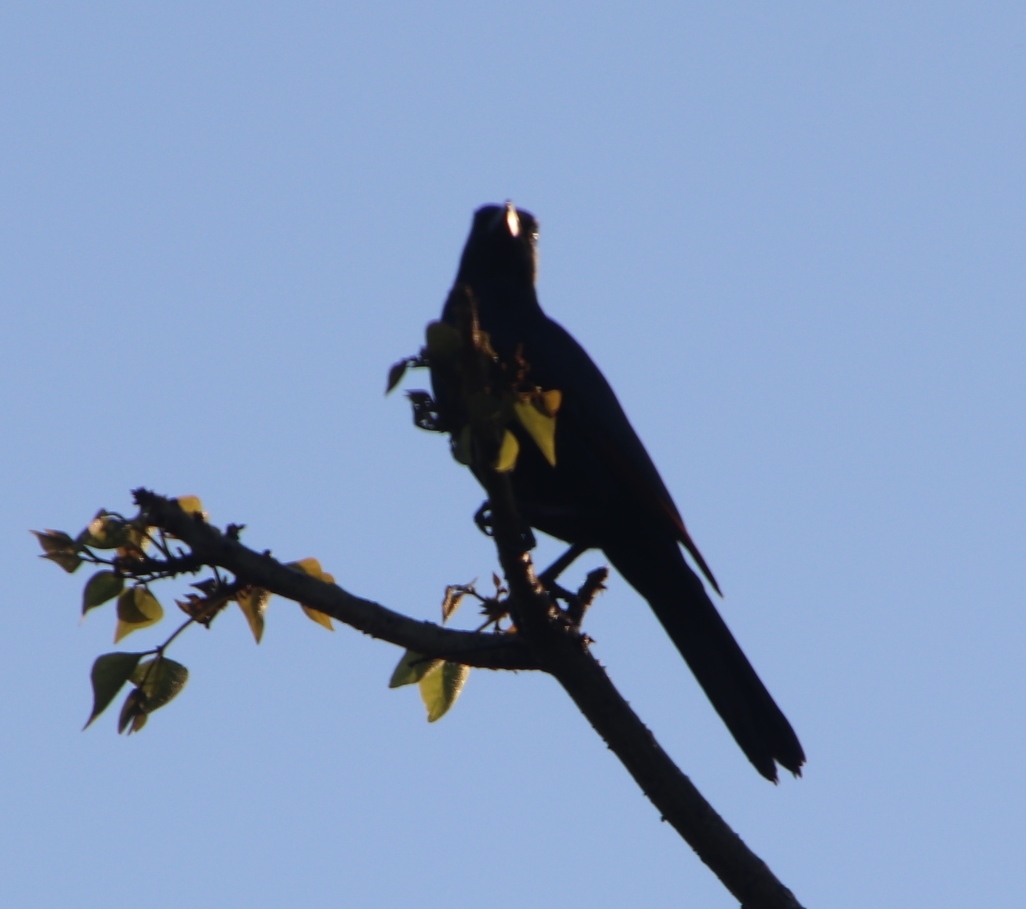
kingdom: Animalia
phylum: Chordata
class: Aves
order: Passeriformes
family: Sturnidae
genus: Onychognathus
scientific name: Onychognathus morio
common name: Red-winged starling
